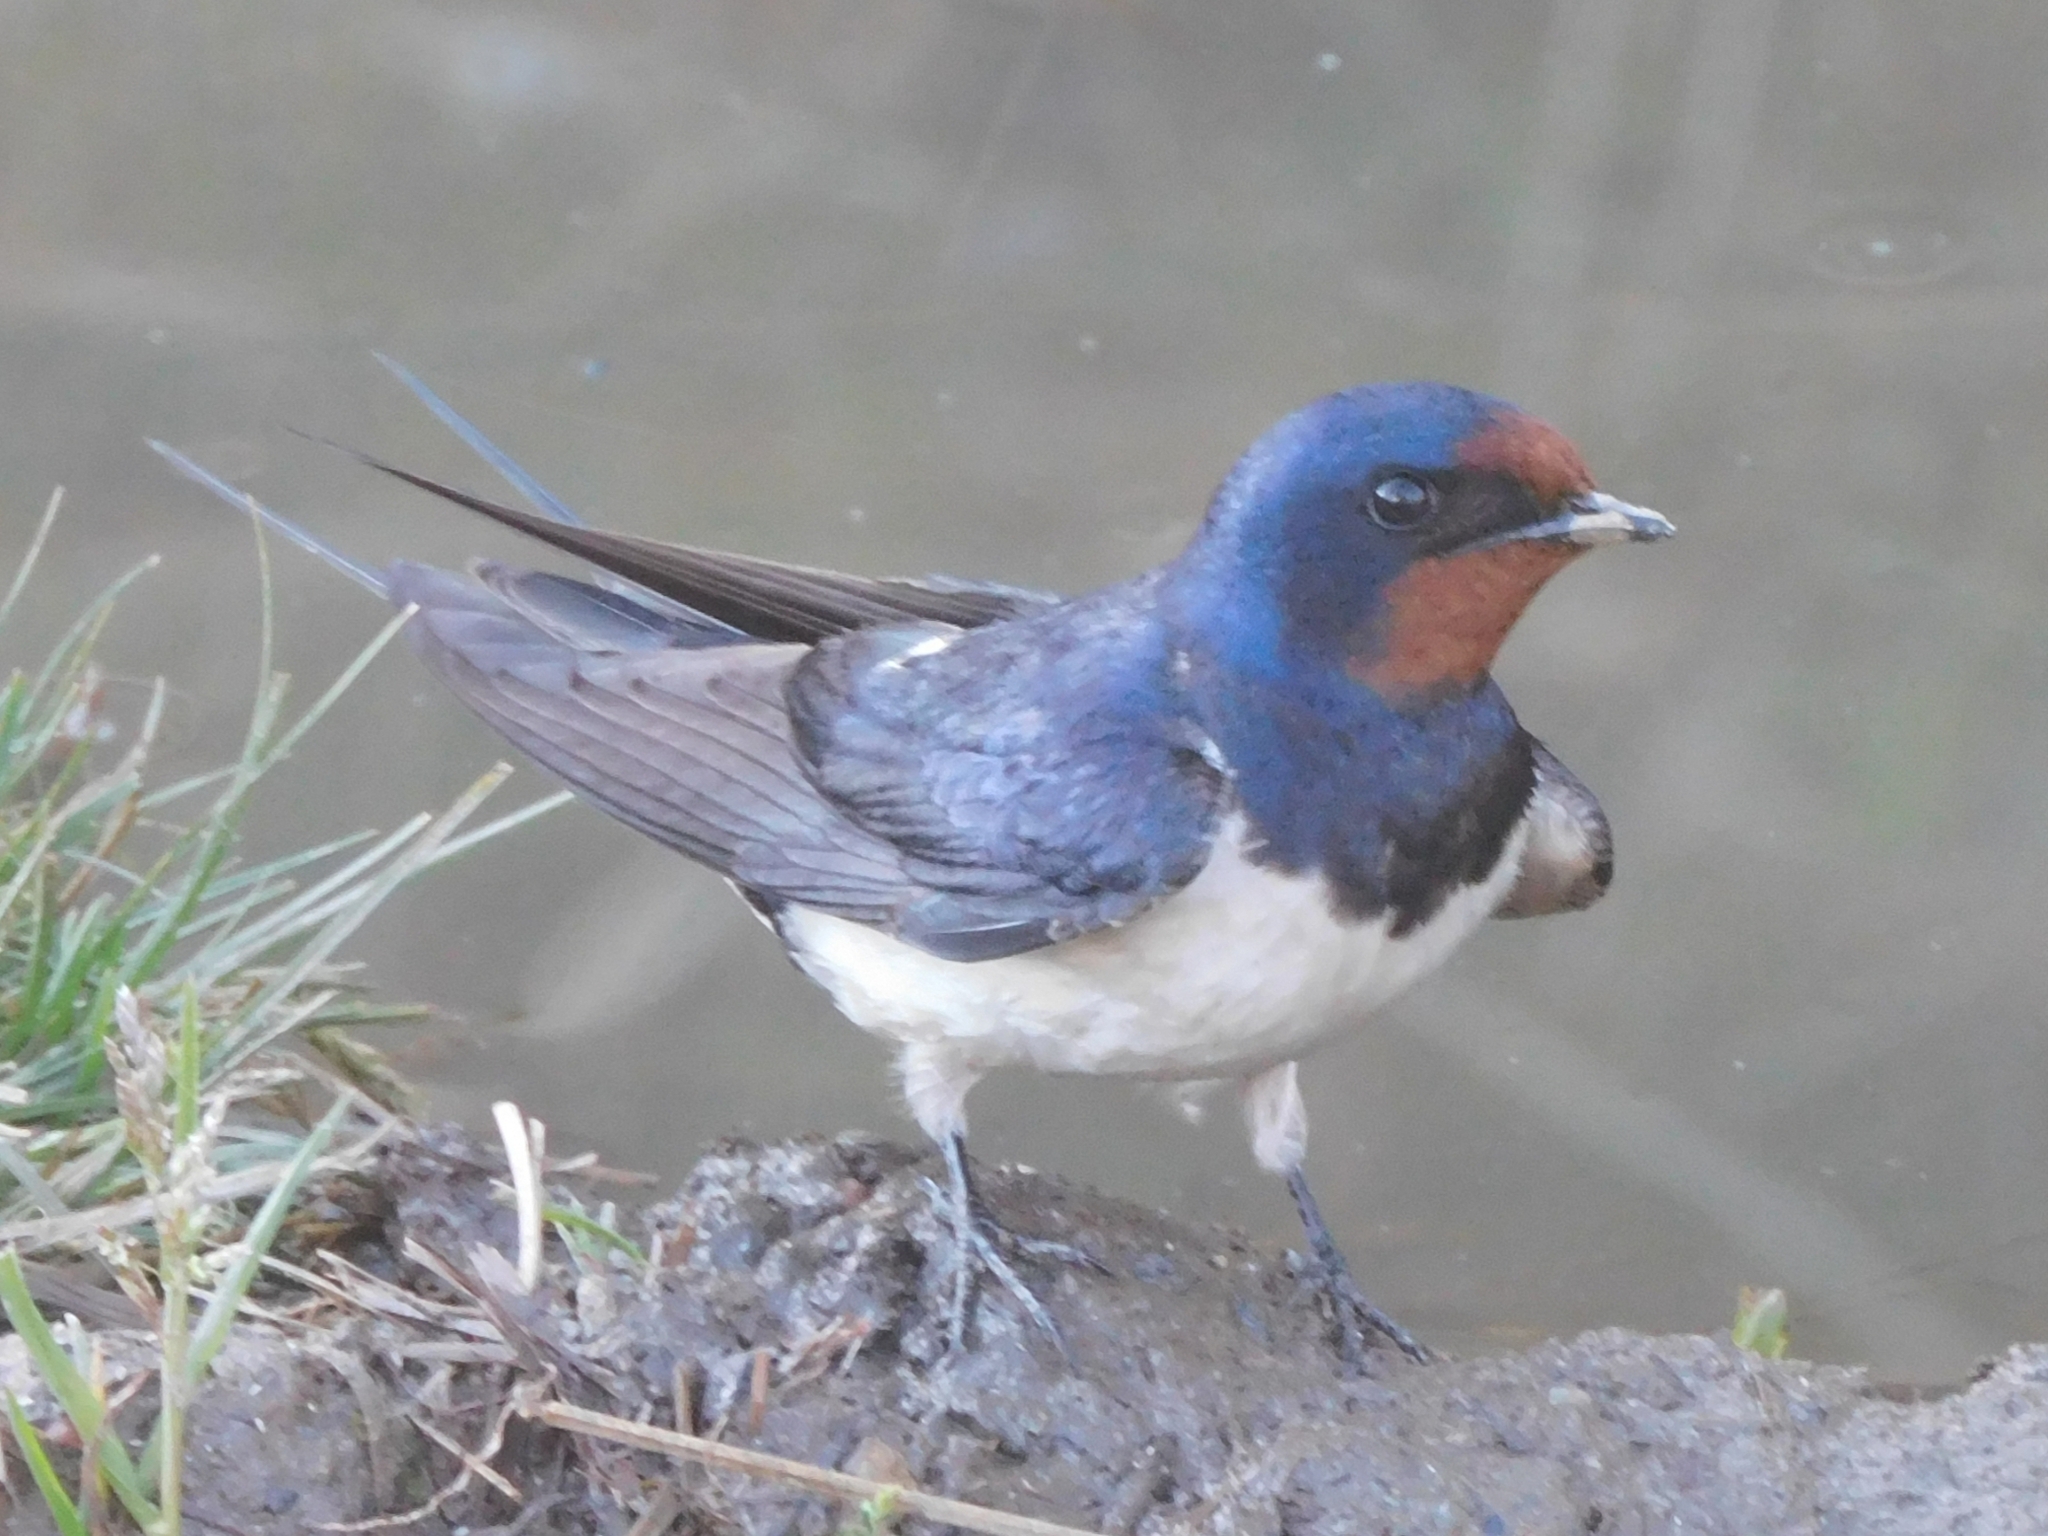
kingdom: Animalia
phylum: Chordata
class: Aves
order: Passeriformes
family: Hirundinidae
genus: Hirundo
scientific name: Hirundo rustica
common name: Barn swallow
